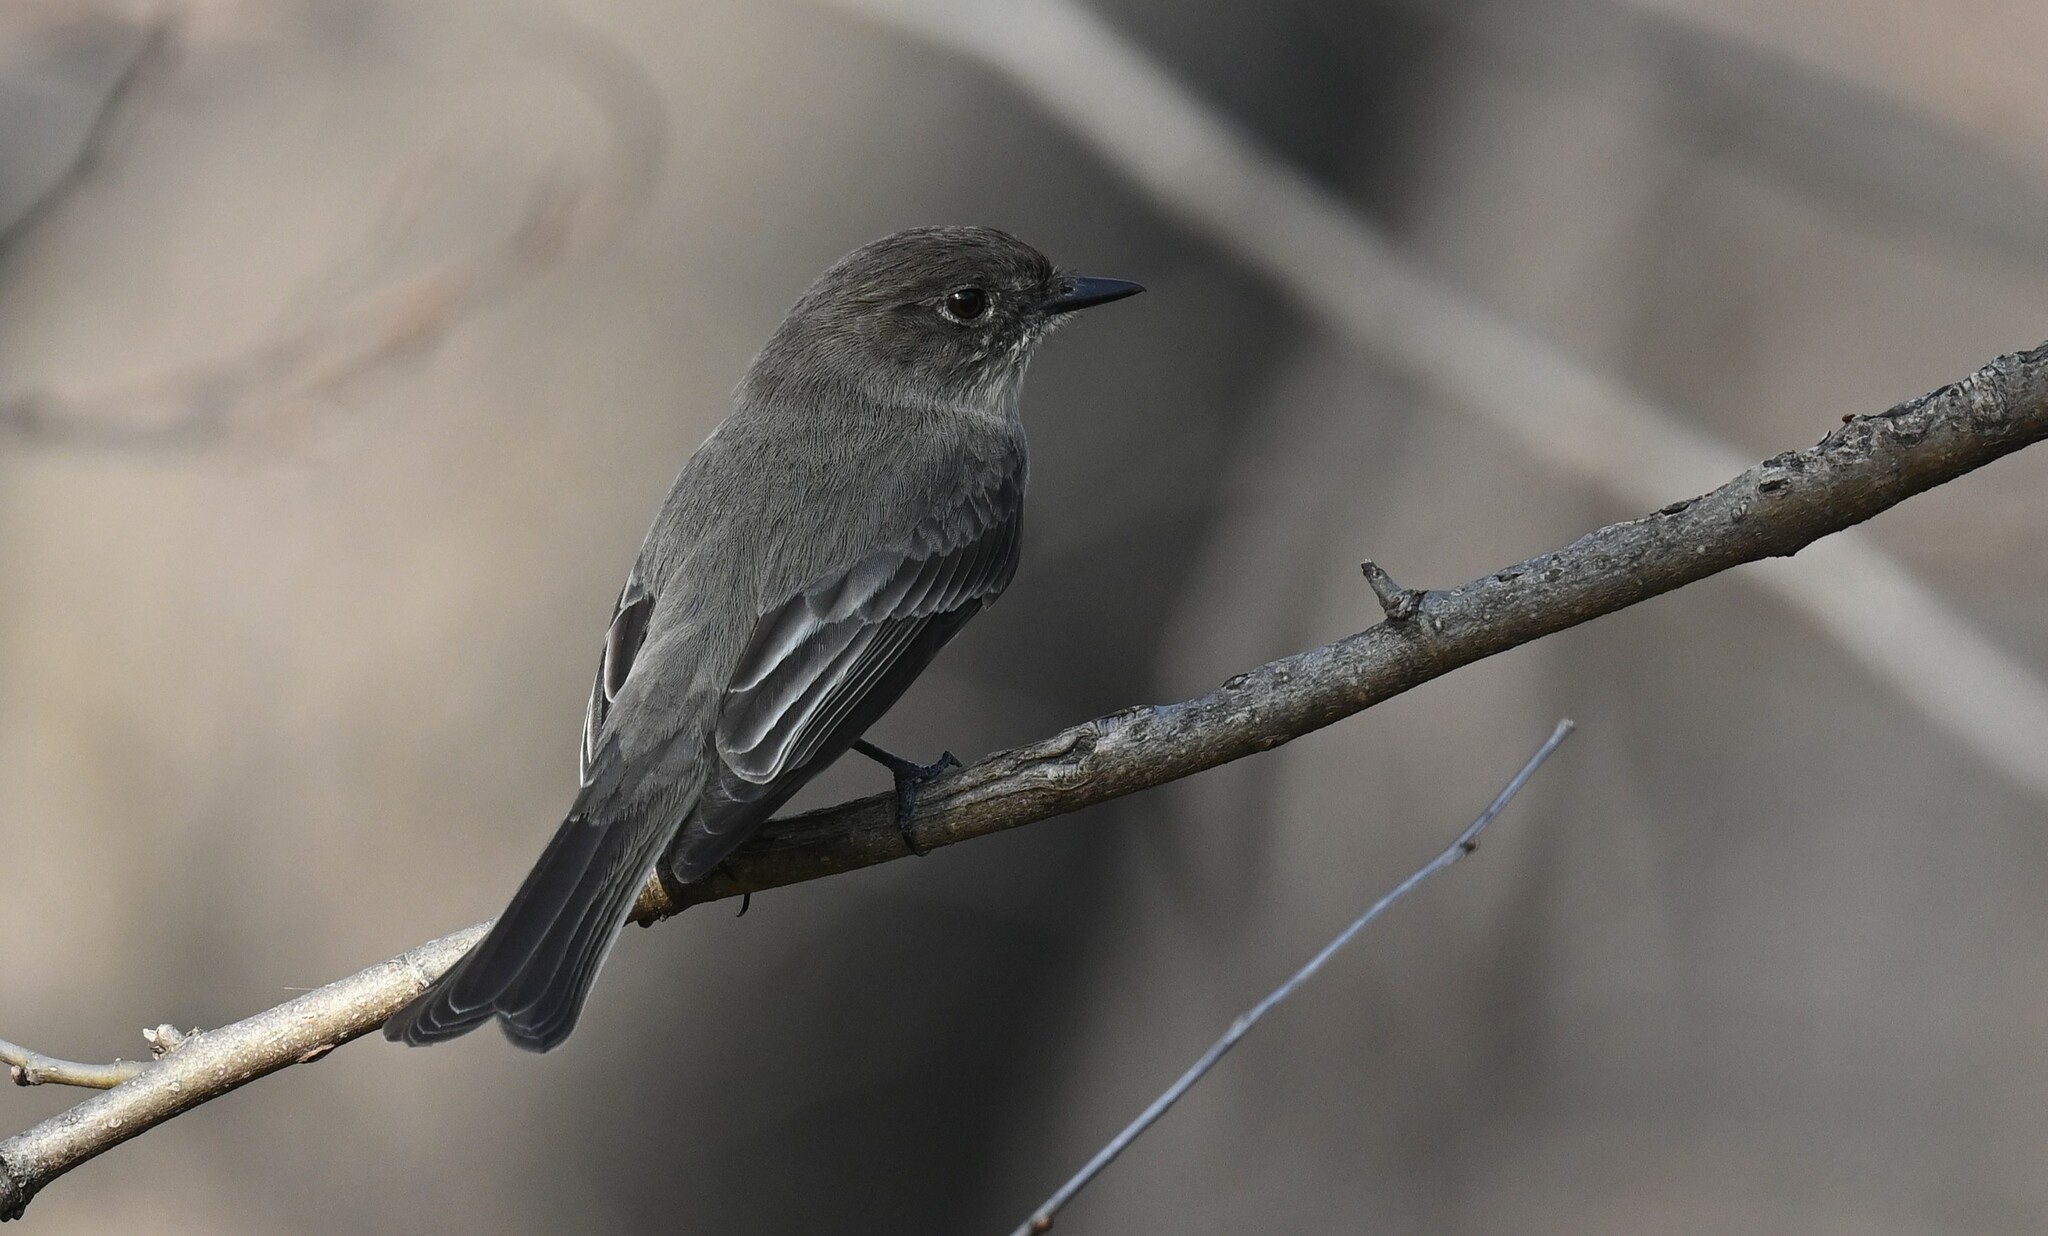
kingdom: Animalia
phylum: Chordata
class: Aves
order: Passeriformes
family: Tyrannidae
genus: Sayornis
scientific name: Sayornis phoebe
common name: Eastern phoebe
